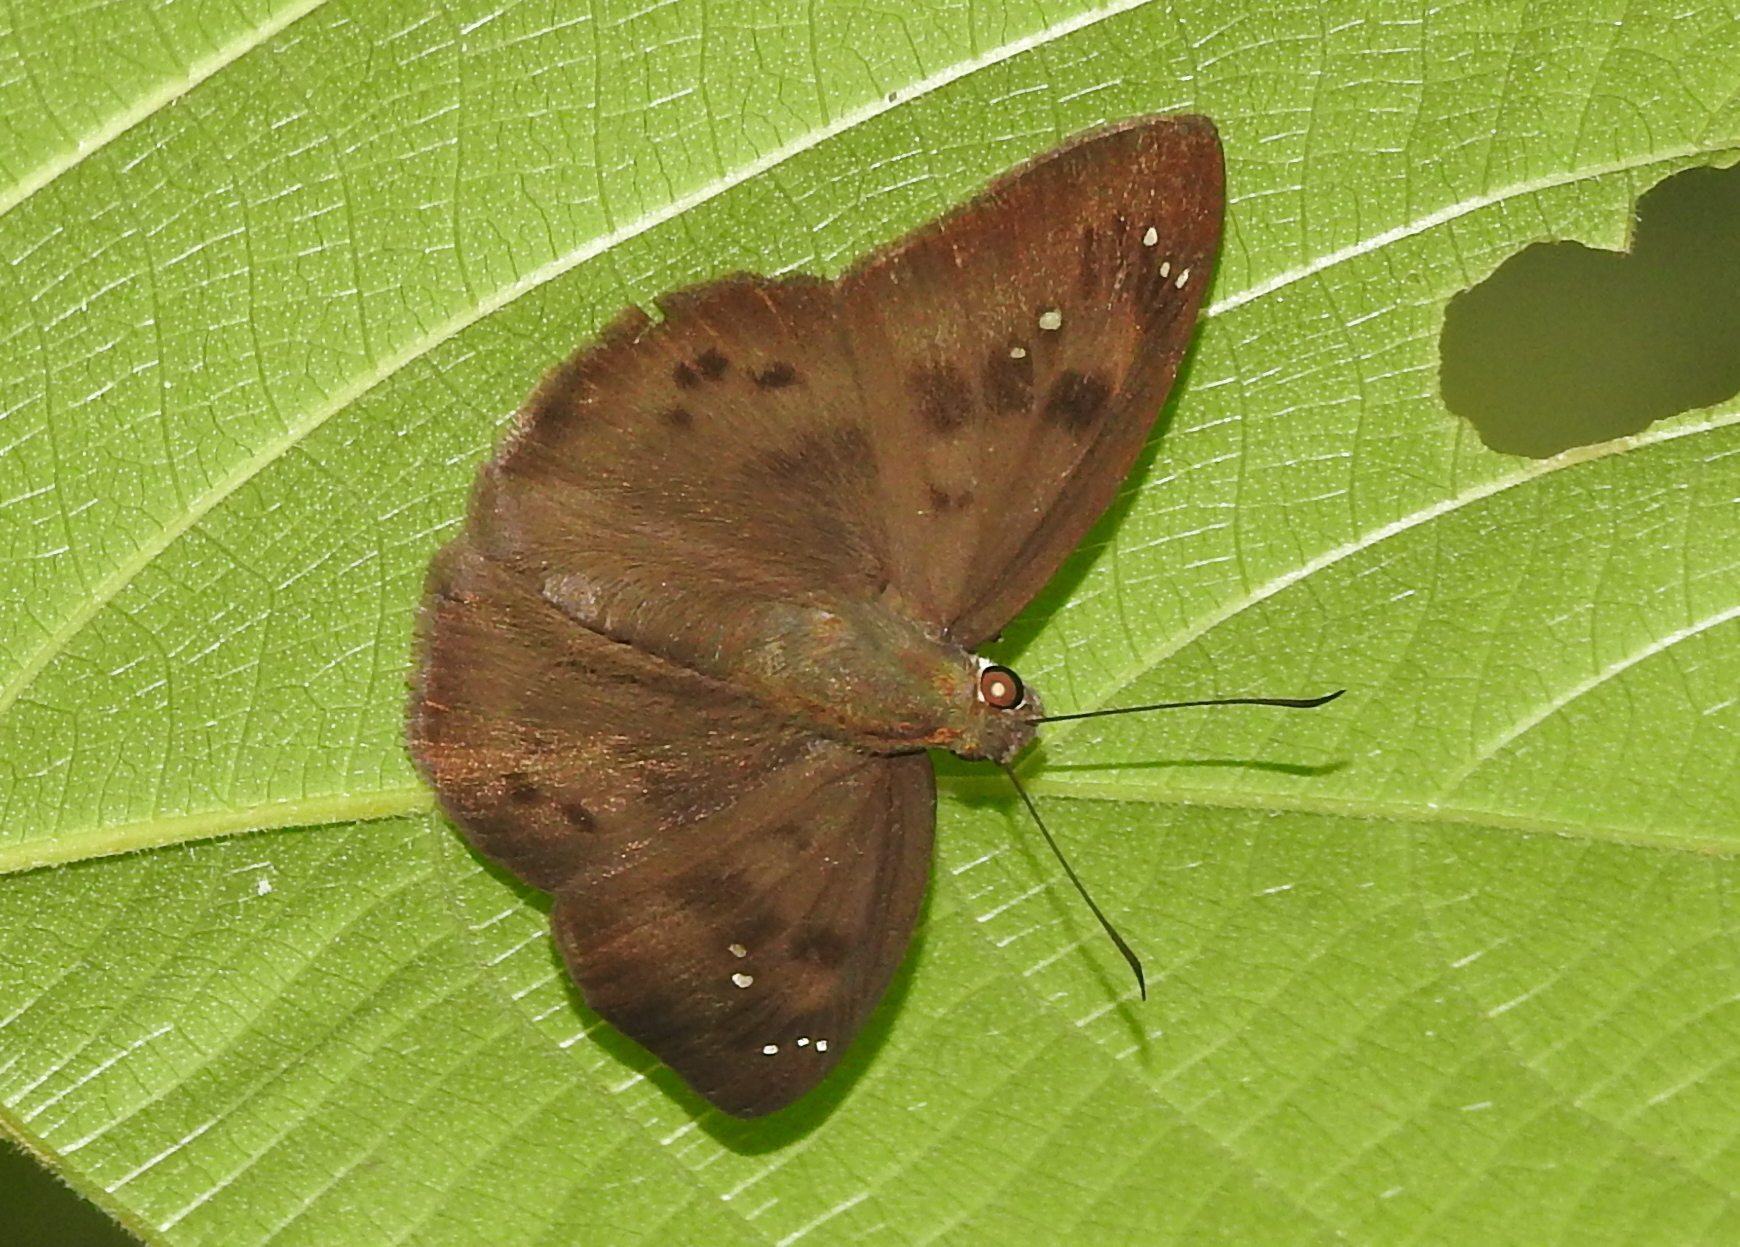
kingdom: Animalia
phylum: Arthropoda
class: Insecta
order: Lepidoptera
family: Hesperiidae
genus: Tagiades
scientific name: Tagiades japetus
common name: Pied flat
